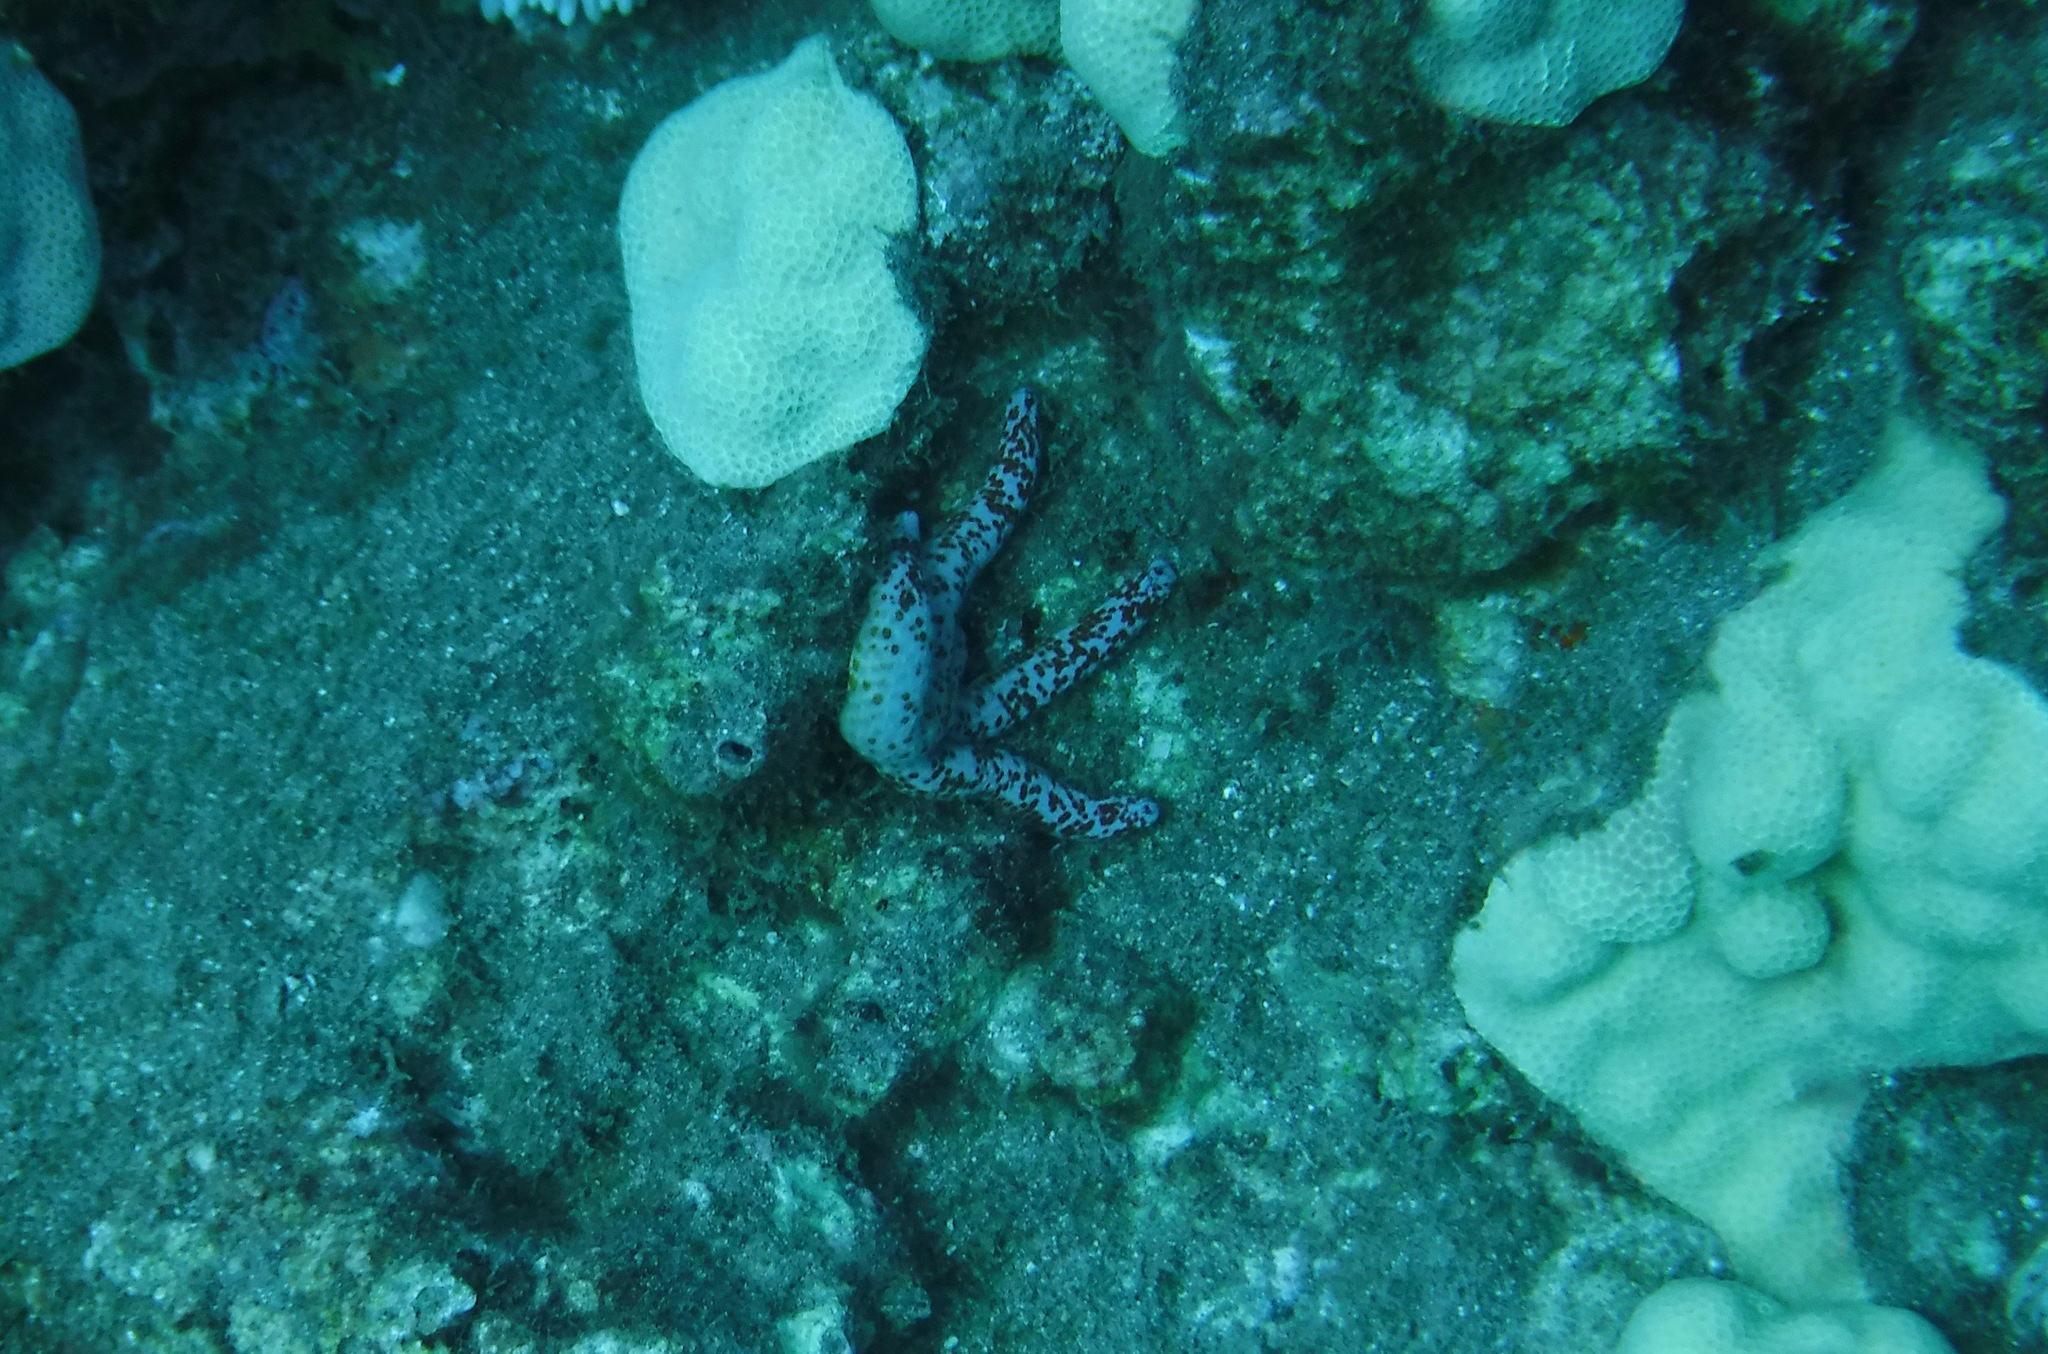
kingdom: Animalia
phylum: Echinodermata
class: Asteroidea
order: Valvatida
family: Ophidiasteridae
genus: Linckia
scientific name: Linckia multifora
